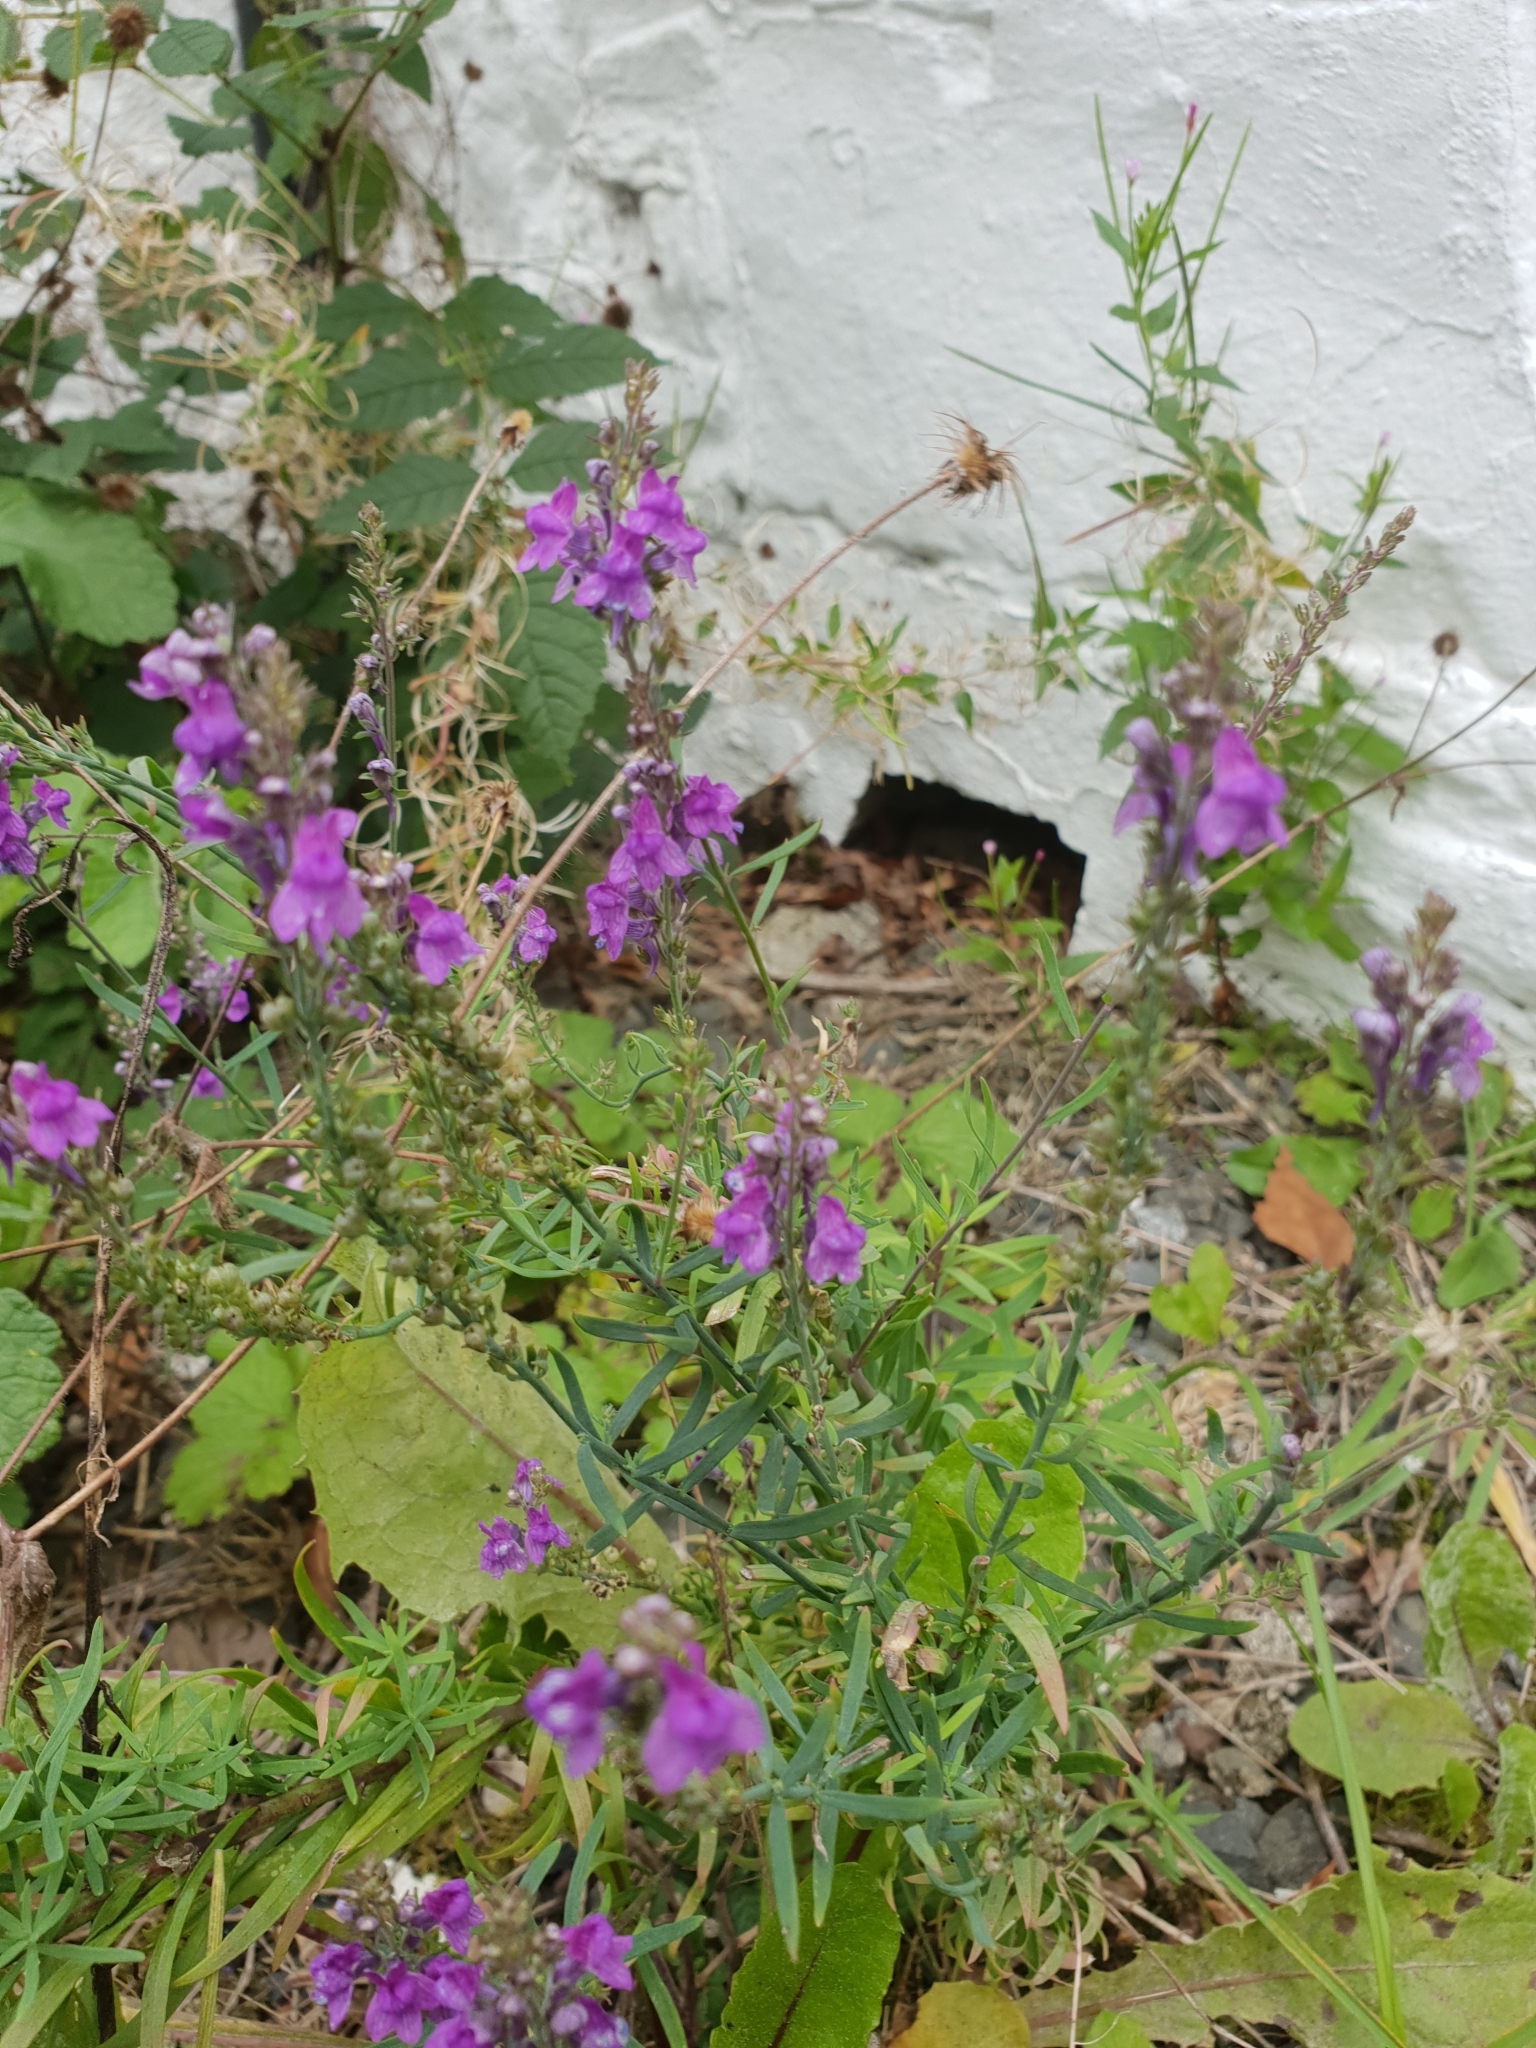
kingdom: Plantae
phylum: Tracheophyta
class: Magnoliopsida
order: Lamiales
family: Plantaginaceae
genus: Linaria
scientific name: Linaria purpurea
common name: Purple toadflax
